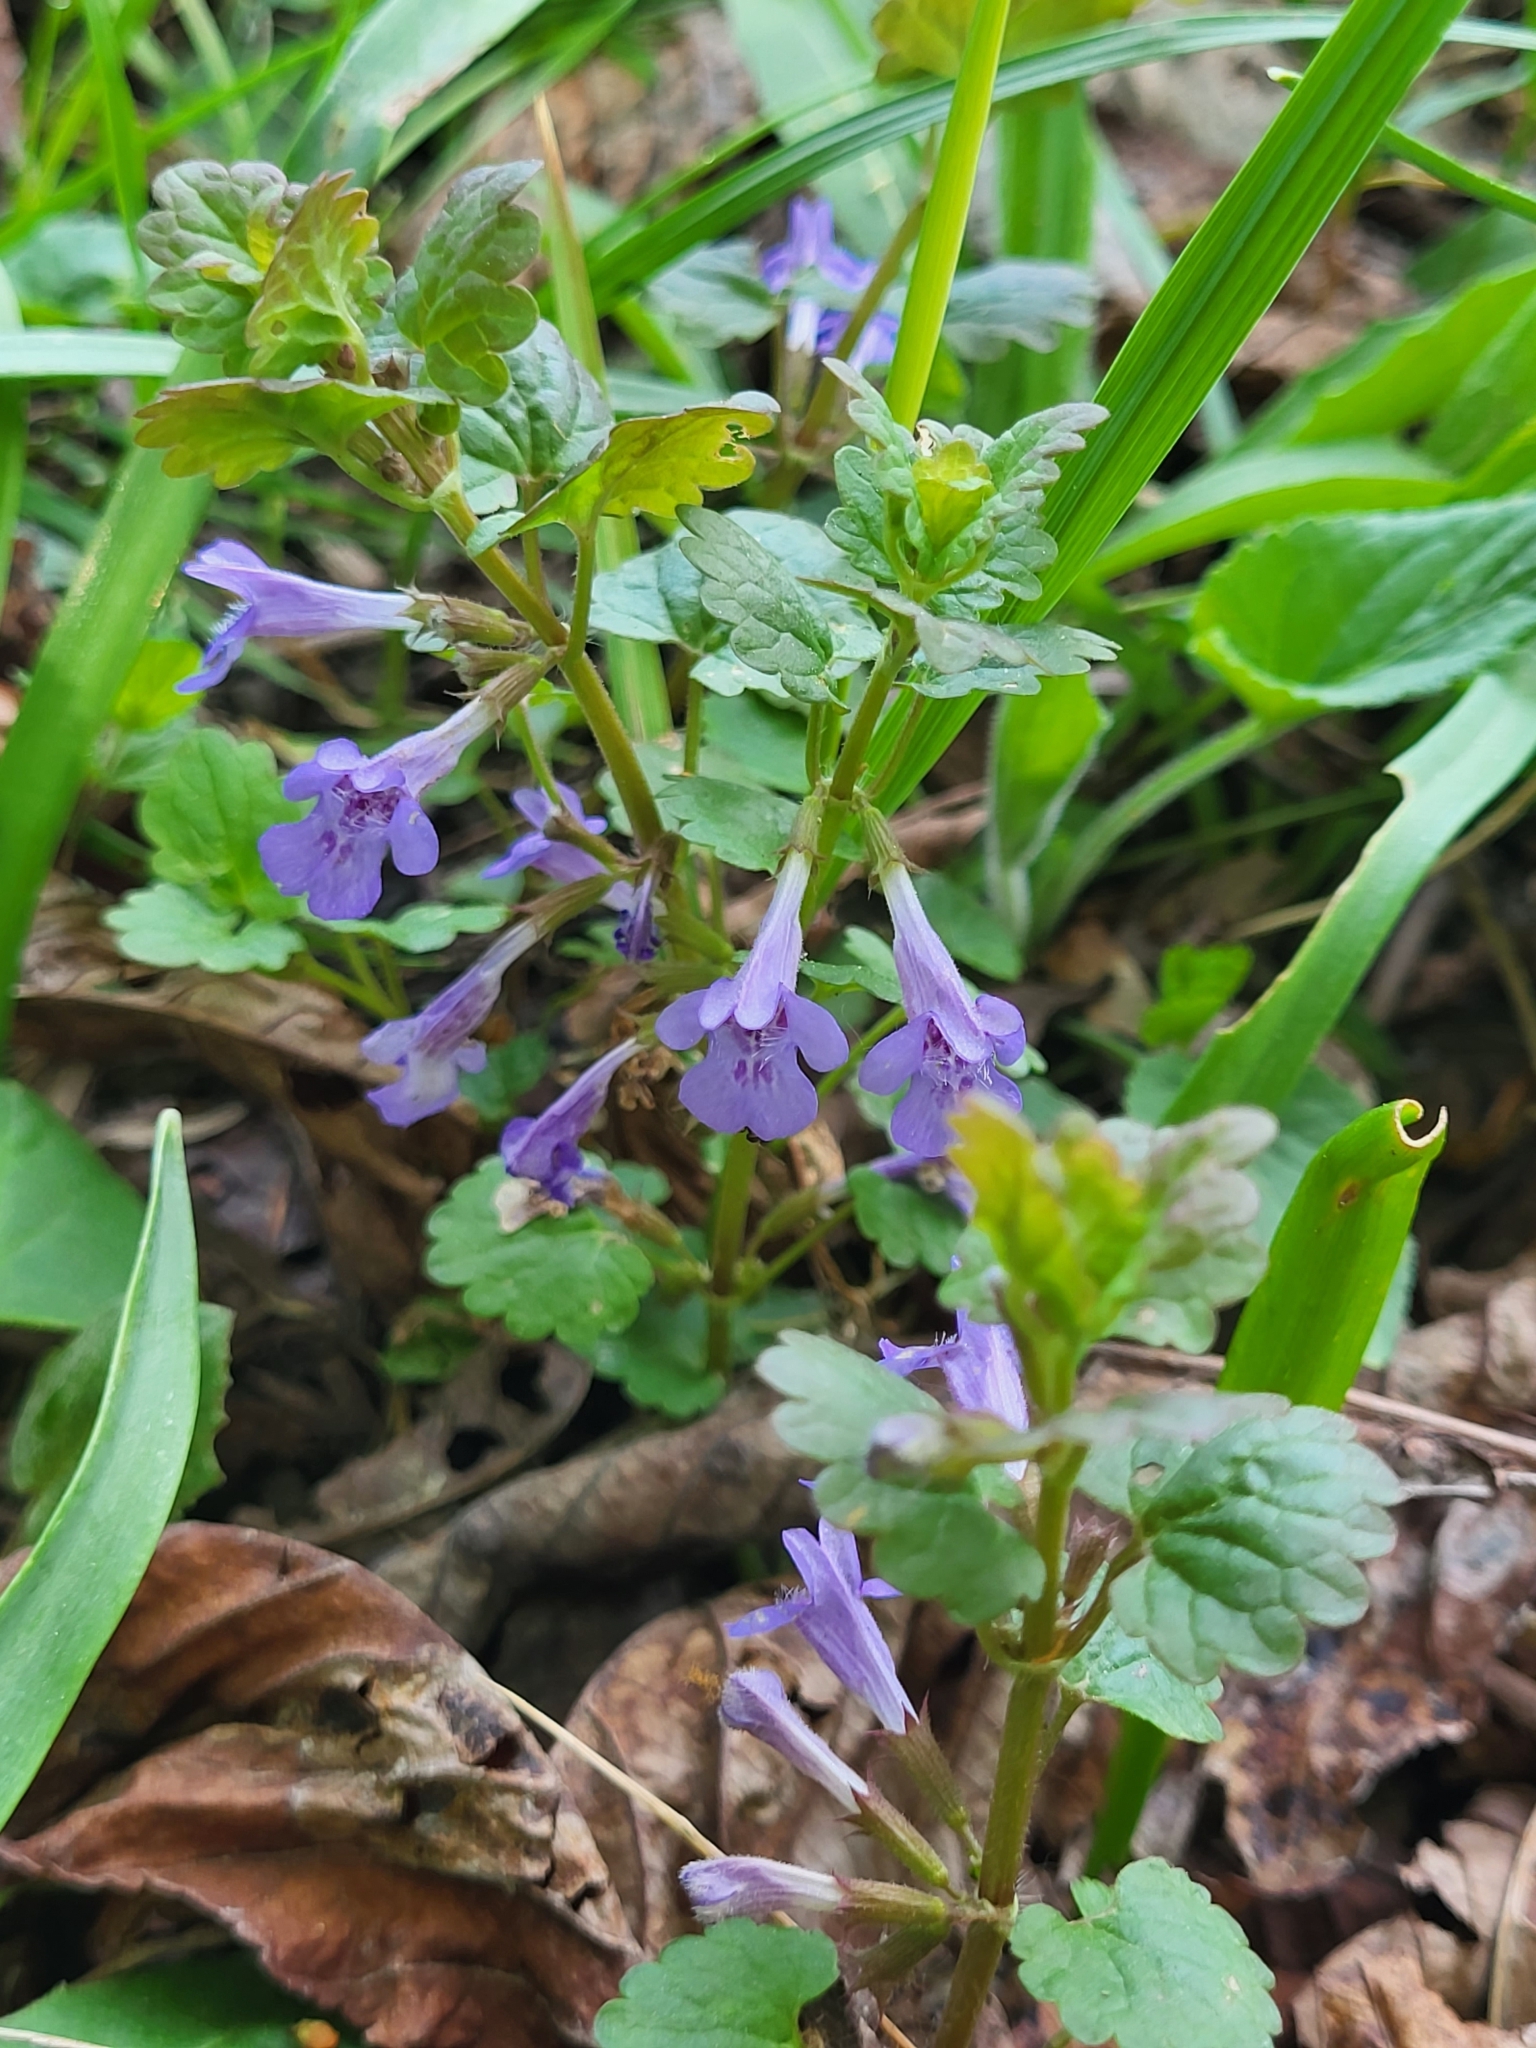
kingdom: Plantae
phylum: Tracheophyta
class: Magnoliopsida
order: Lamiales
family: Lamiaceae
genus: Glechoma
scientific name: Glechoma hederacea
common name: Ground ivy
